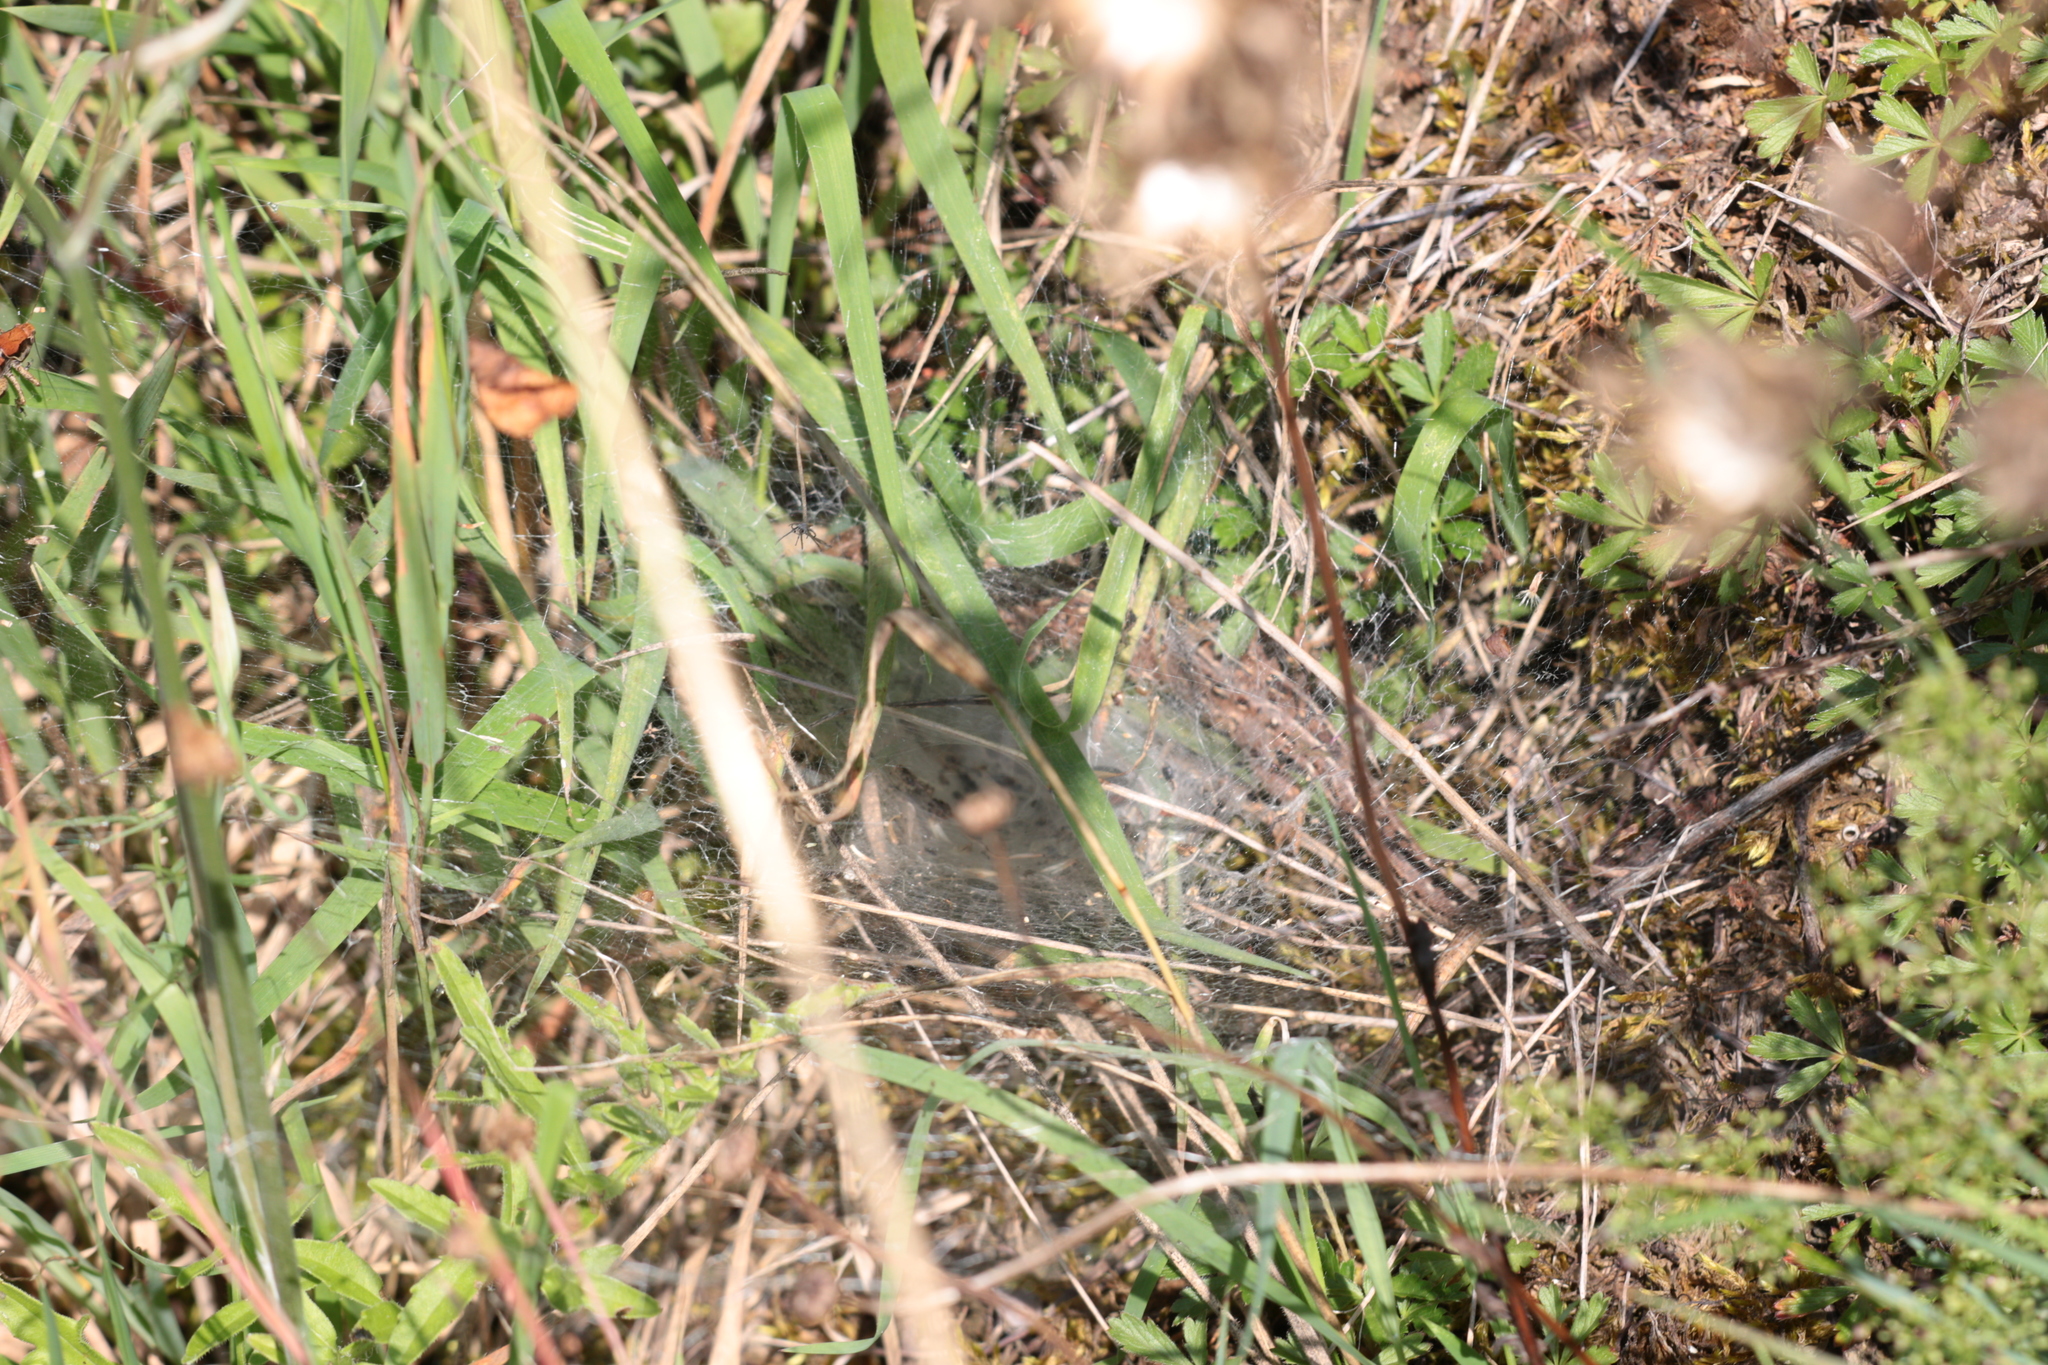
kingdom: Animalia
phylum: Chordata
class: Squamata
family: Lacertidae
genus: Lacerta
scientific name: Lacerta agilis
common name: Sand lizard
